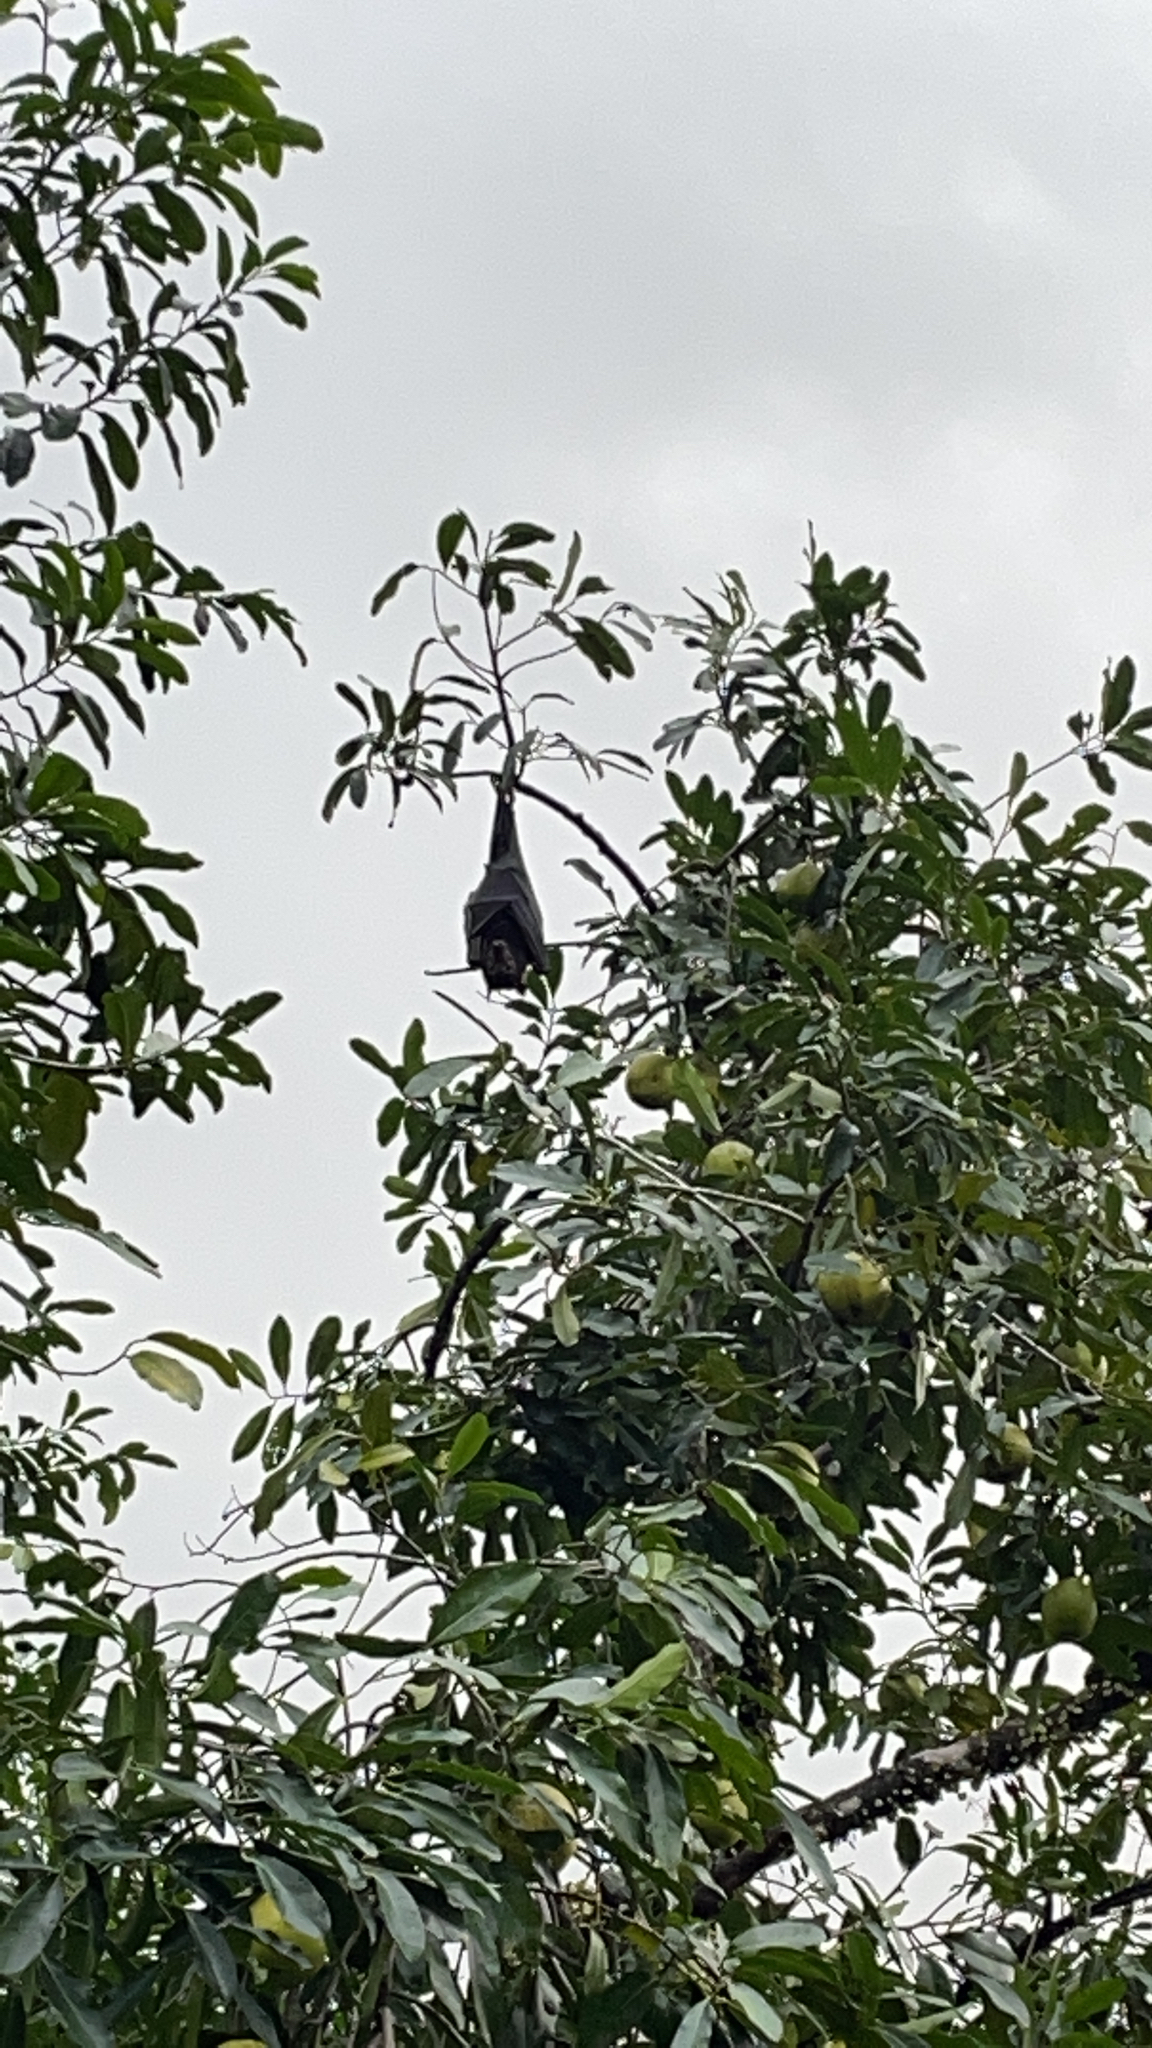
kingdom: Animalia
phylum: Chordata
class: Mammalia
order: Chiroptera
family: Pteropodidae
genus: Pteropus
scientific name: Pteropus conspicillatus
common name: Spectacled flying fox
